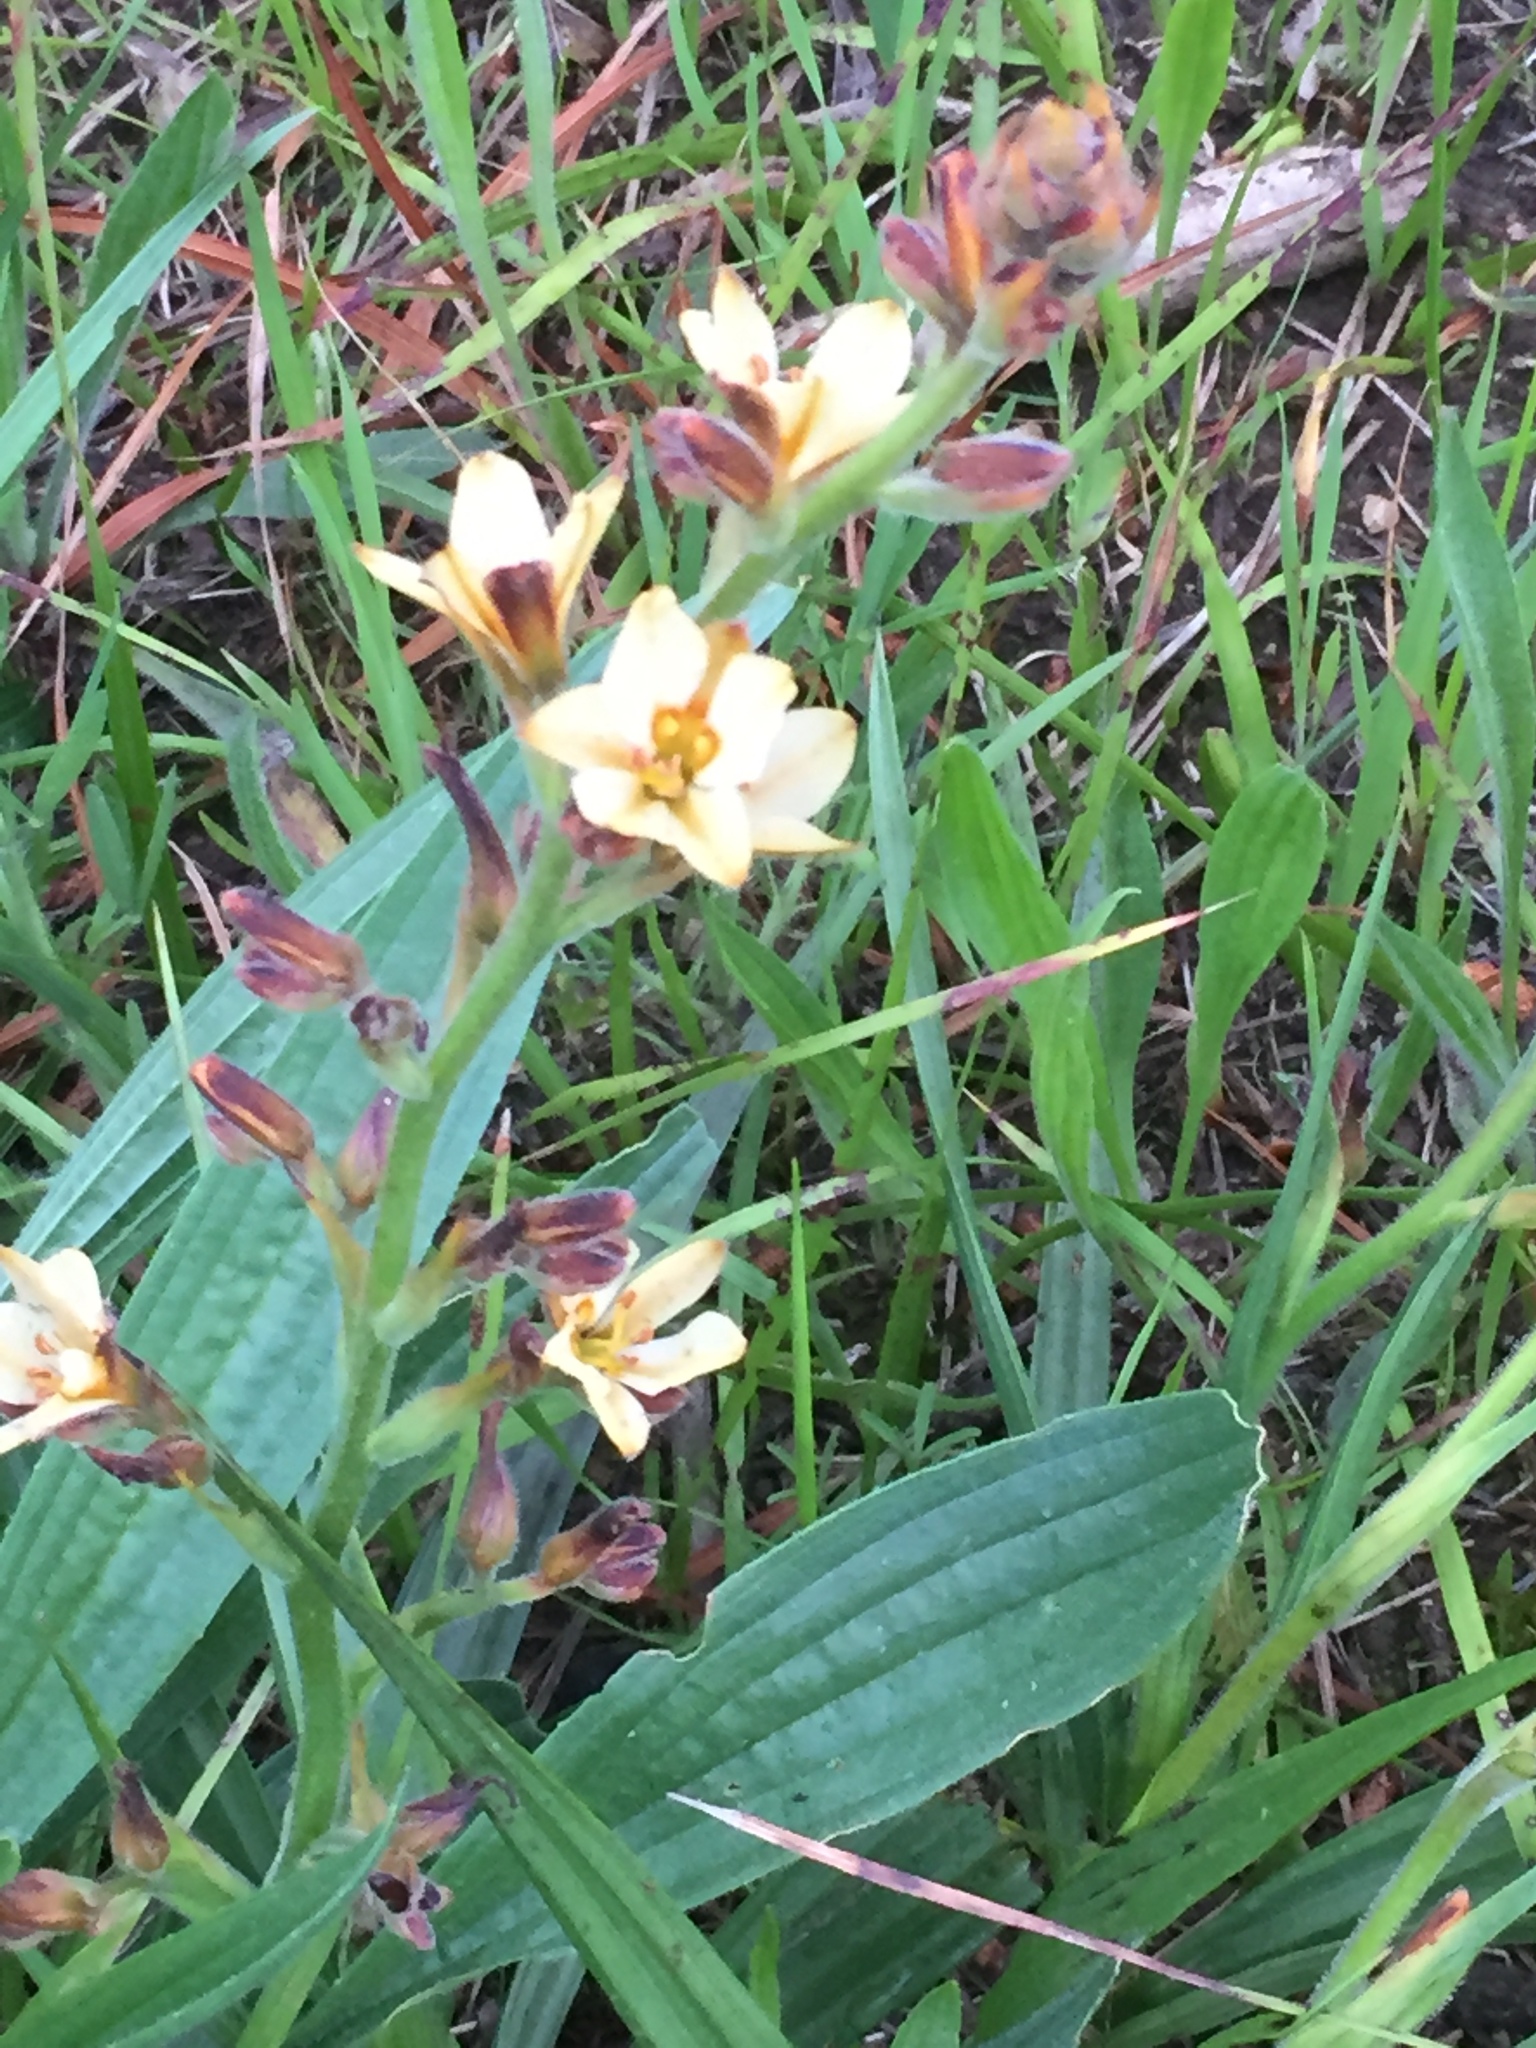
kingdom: Plantae
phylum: Tracheophyta
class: Liliopsida
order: Commelinales
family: Haemodoraceae
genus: Wachendorfia
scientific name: Wachendorfia brachyandra
